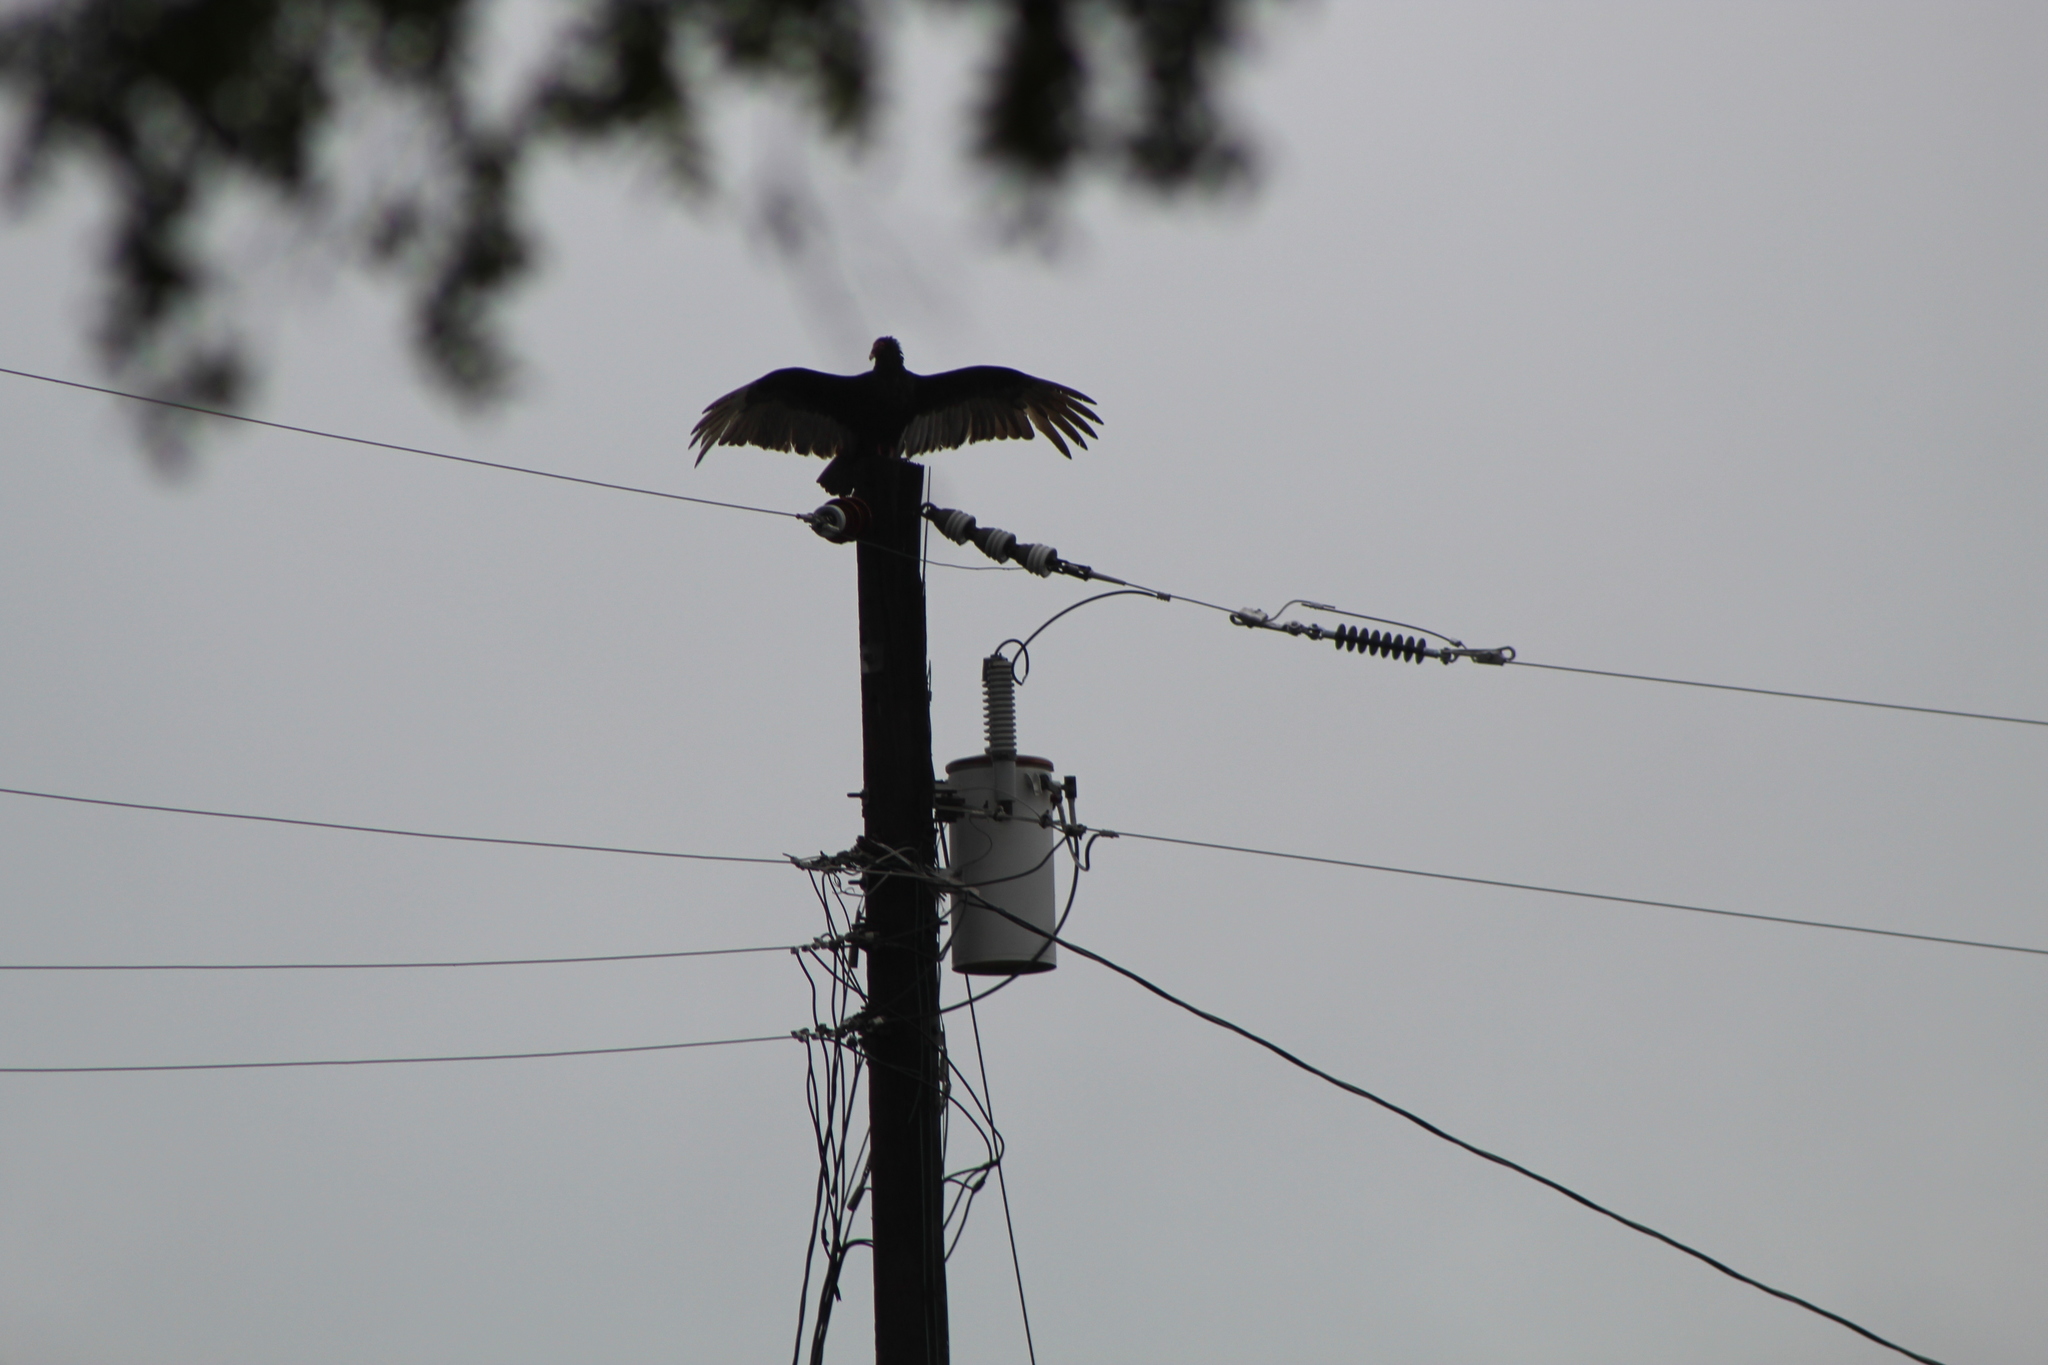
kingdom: Animalia
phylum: Chordata
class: Aves
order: Accipitriformes
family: Cathartidae
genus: Cathartes
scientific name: Cathartes aura
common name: Turkey vulture
